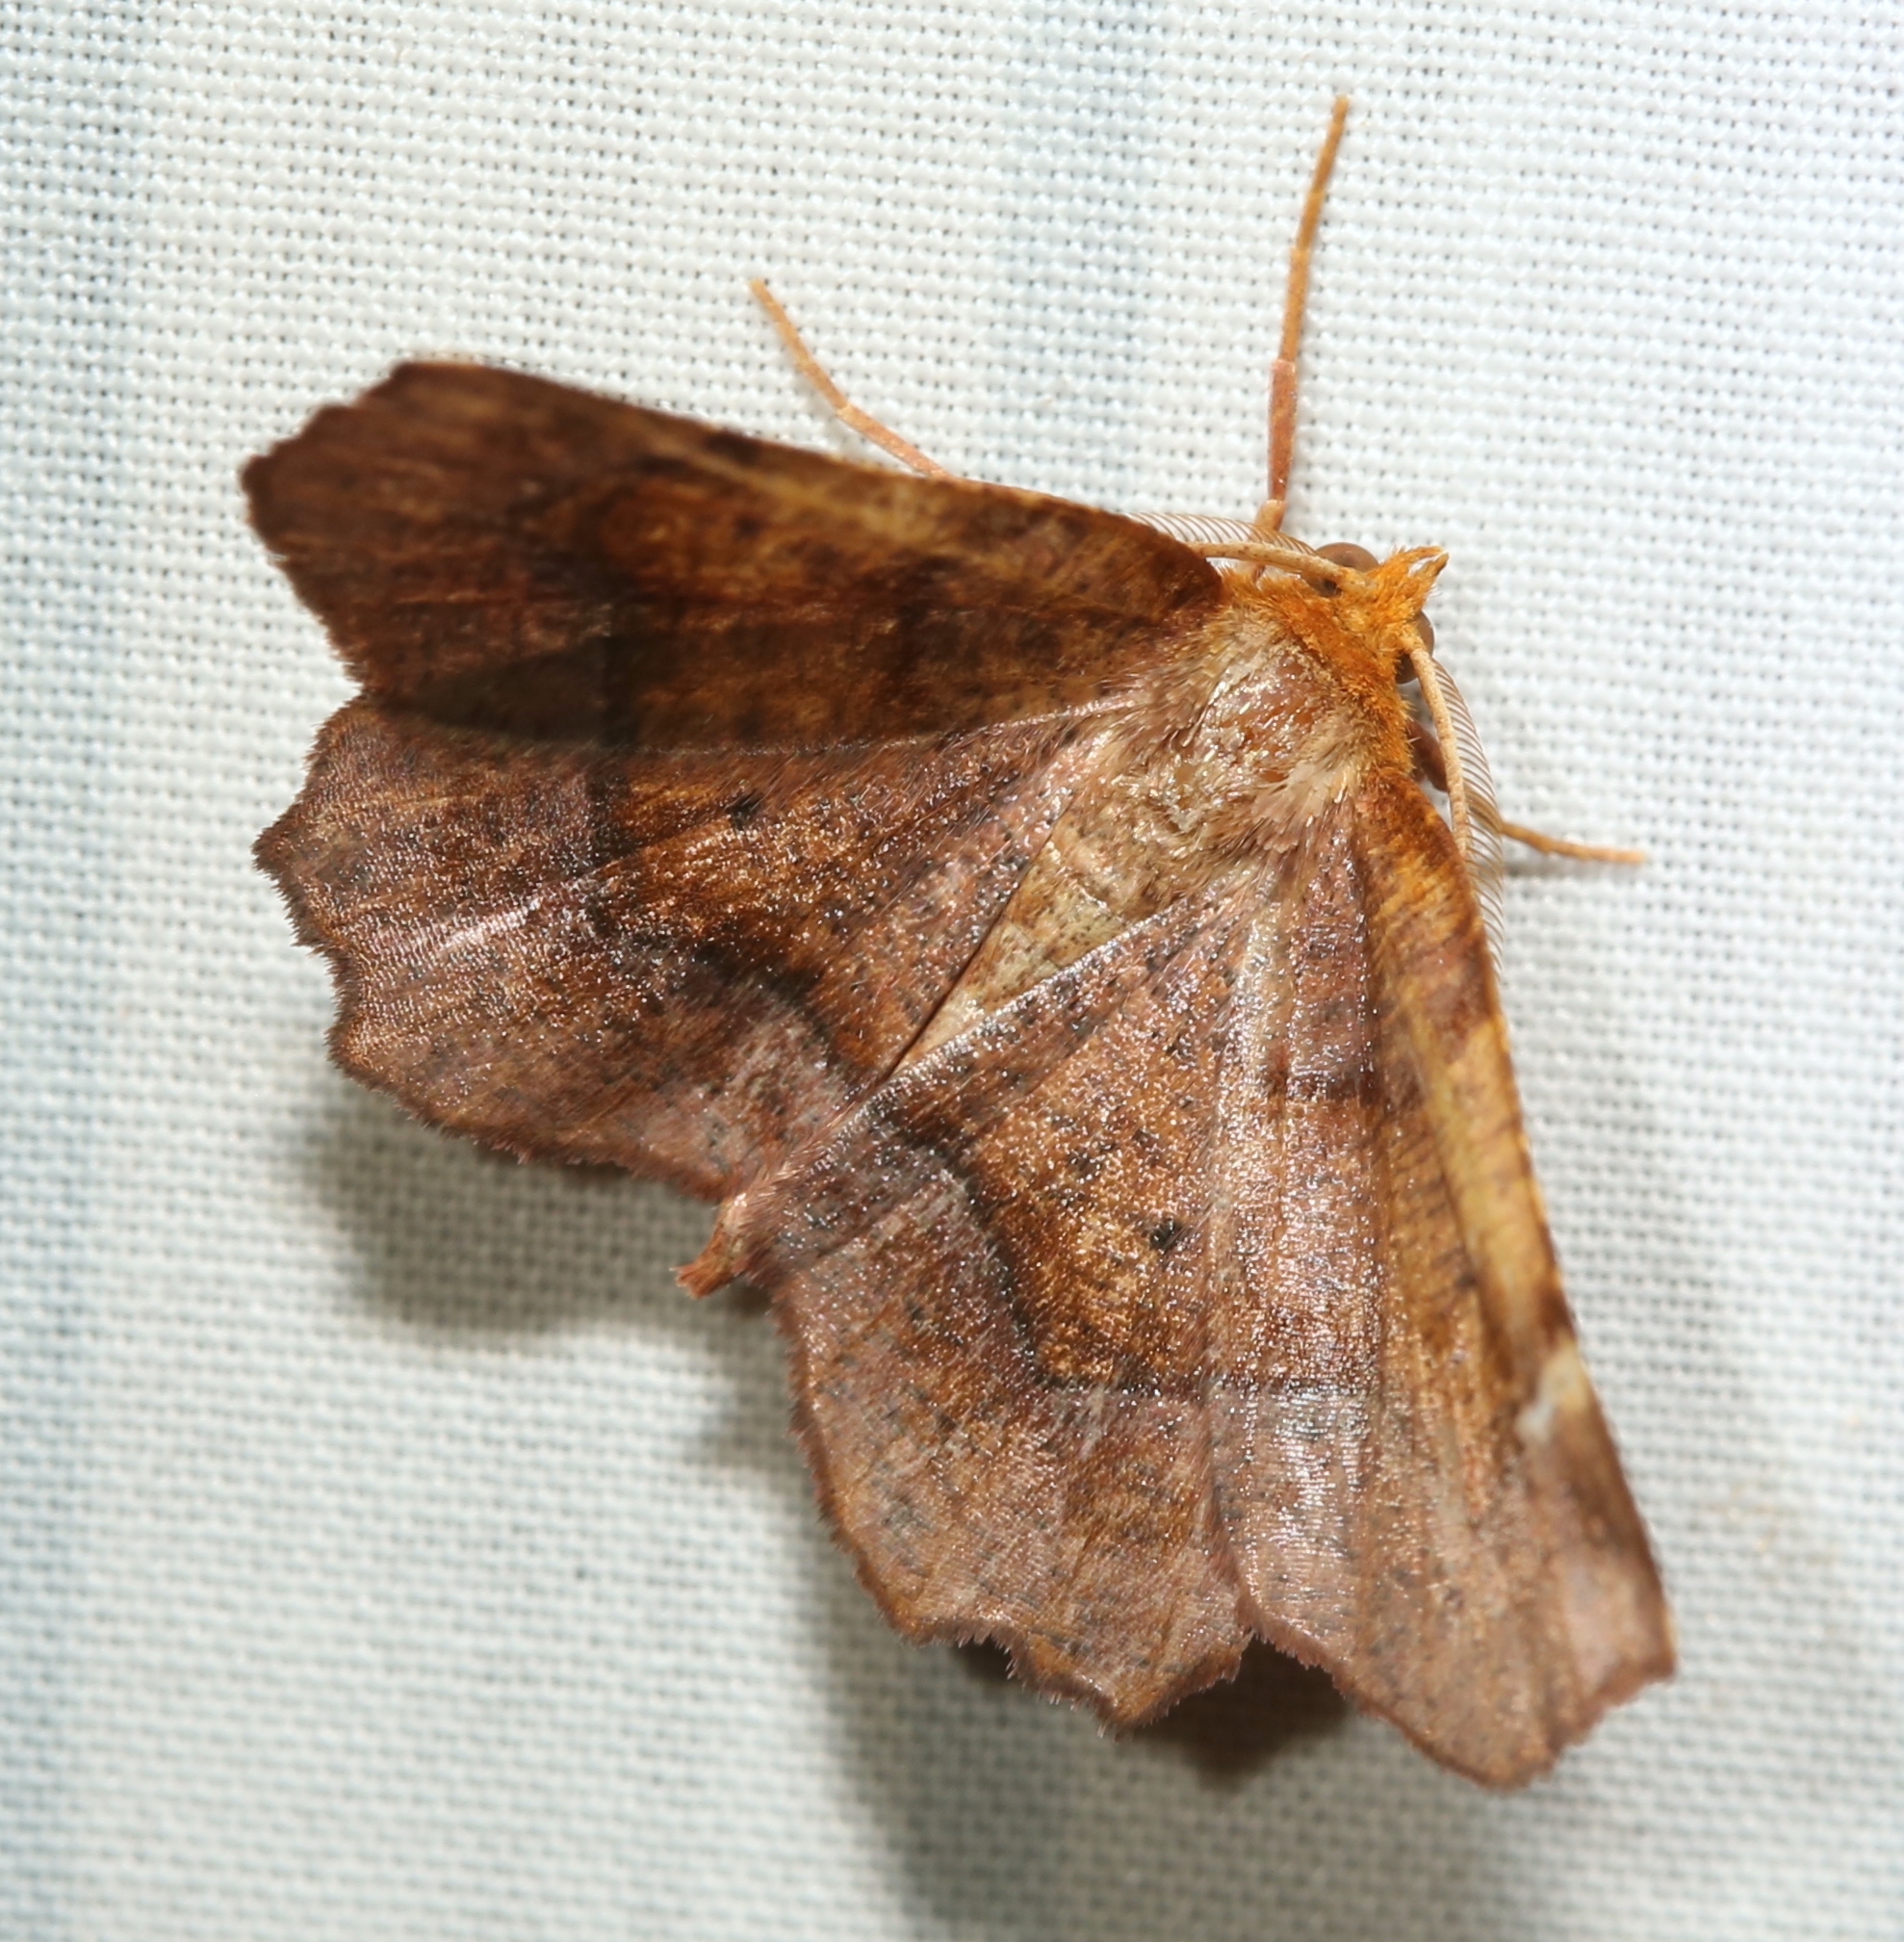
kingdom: Animalia
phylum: Arthropoda
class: Insecta
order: Lepidoptera
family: Geometridae
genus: Metarranthis
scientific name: Metarranthis homuraria
